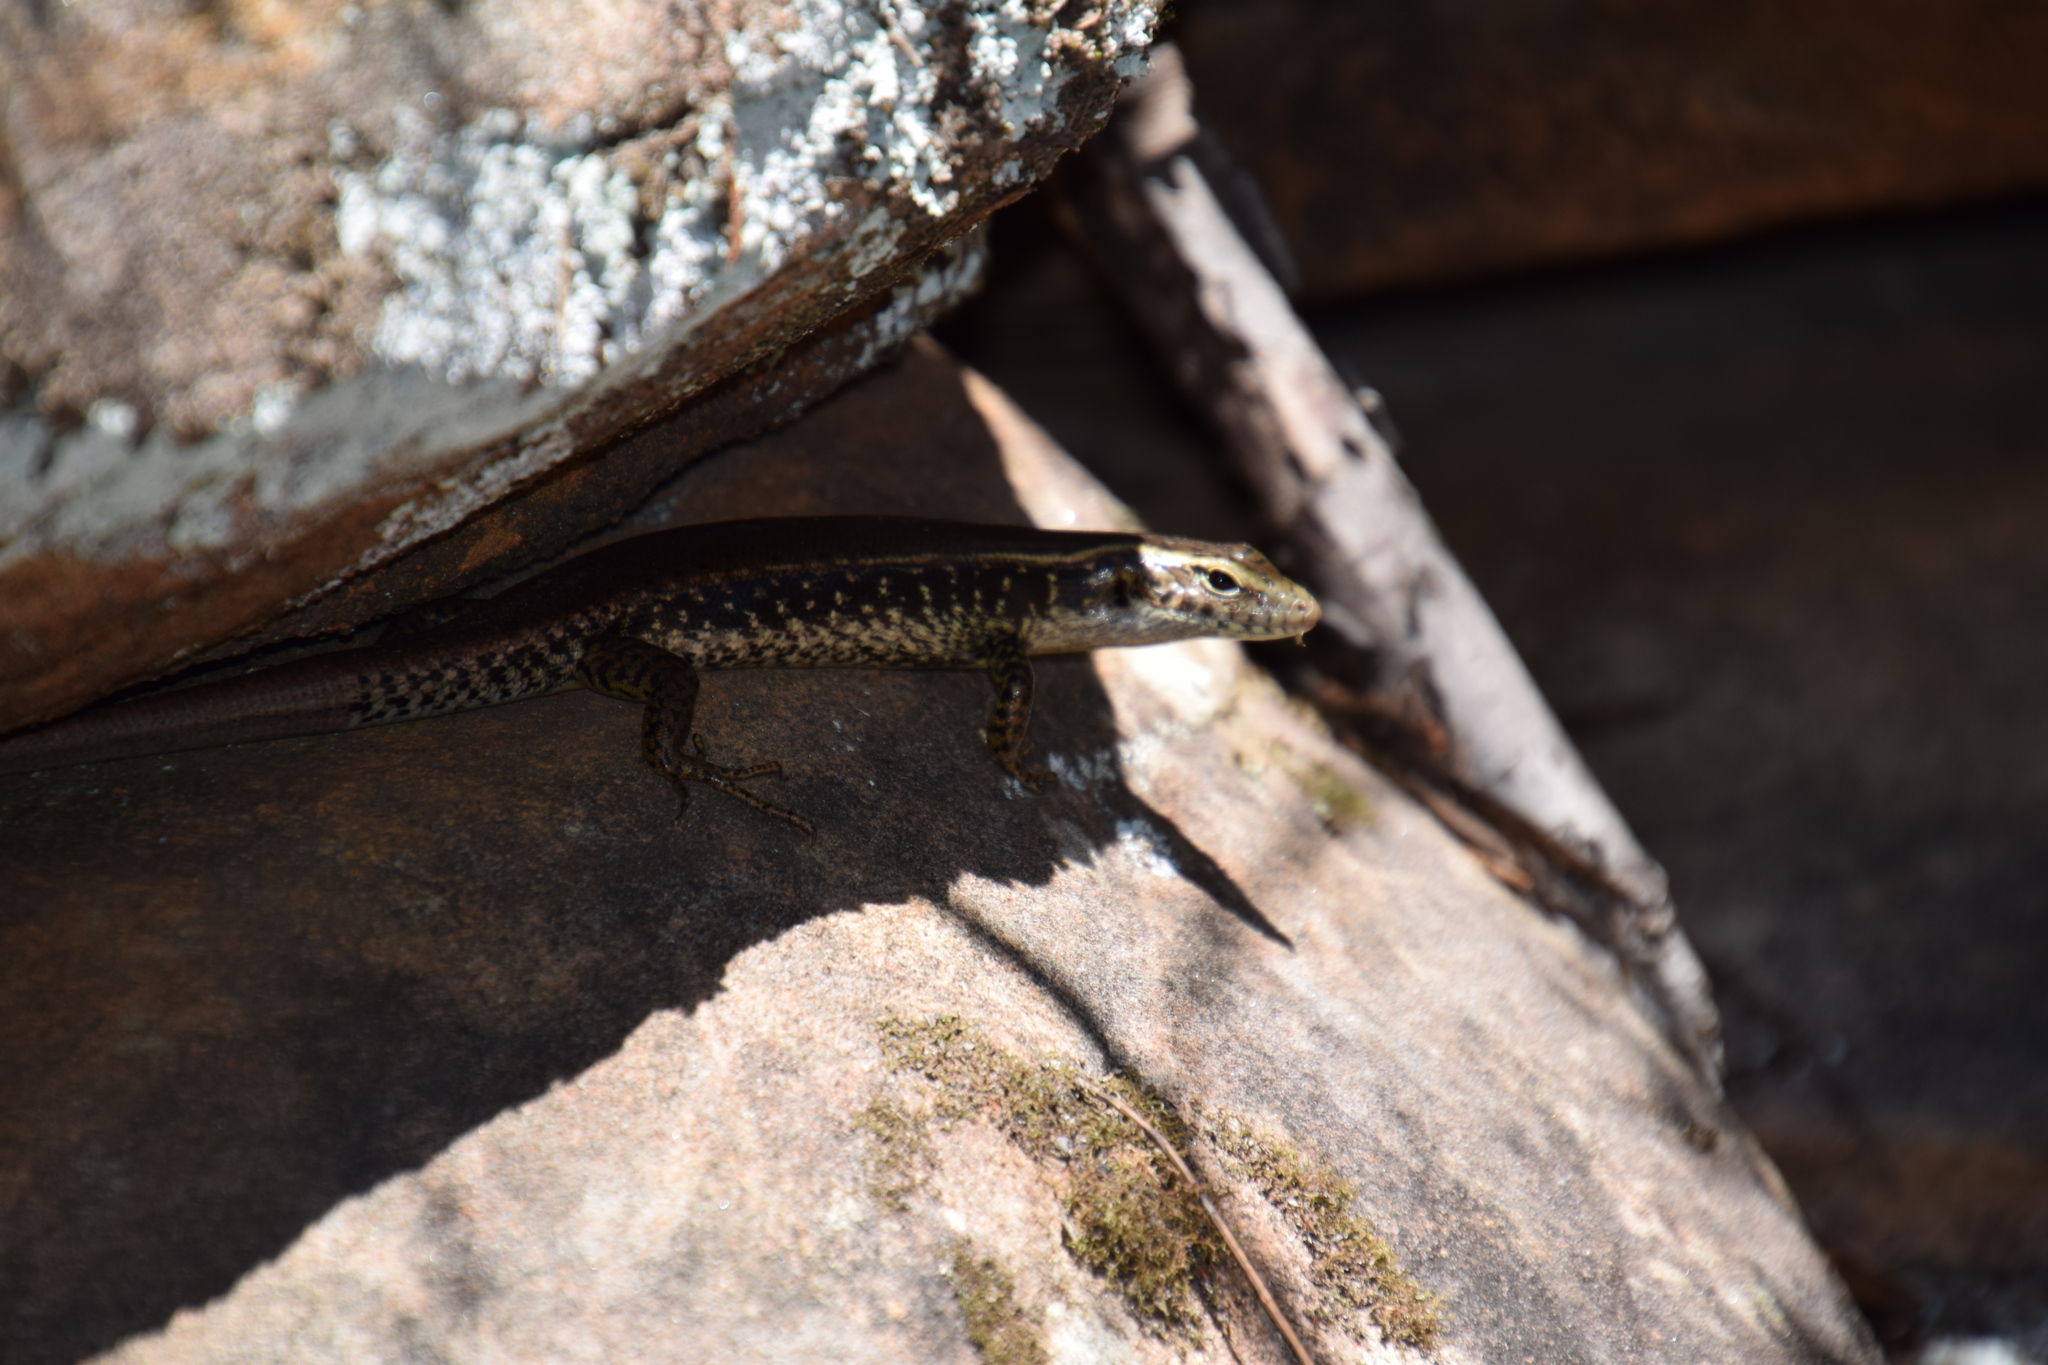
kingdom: Animalia
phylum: Chordata
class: Squamata
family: Scincidae
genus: Eulamprus
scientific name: Eulamprus quoyii
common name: Eastern water skink
